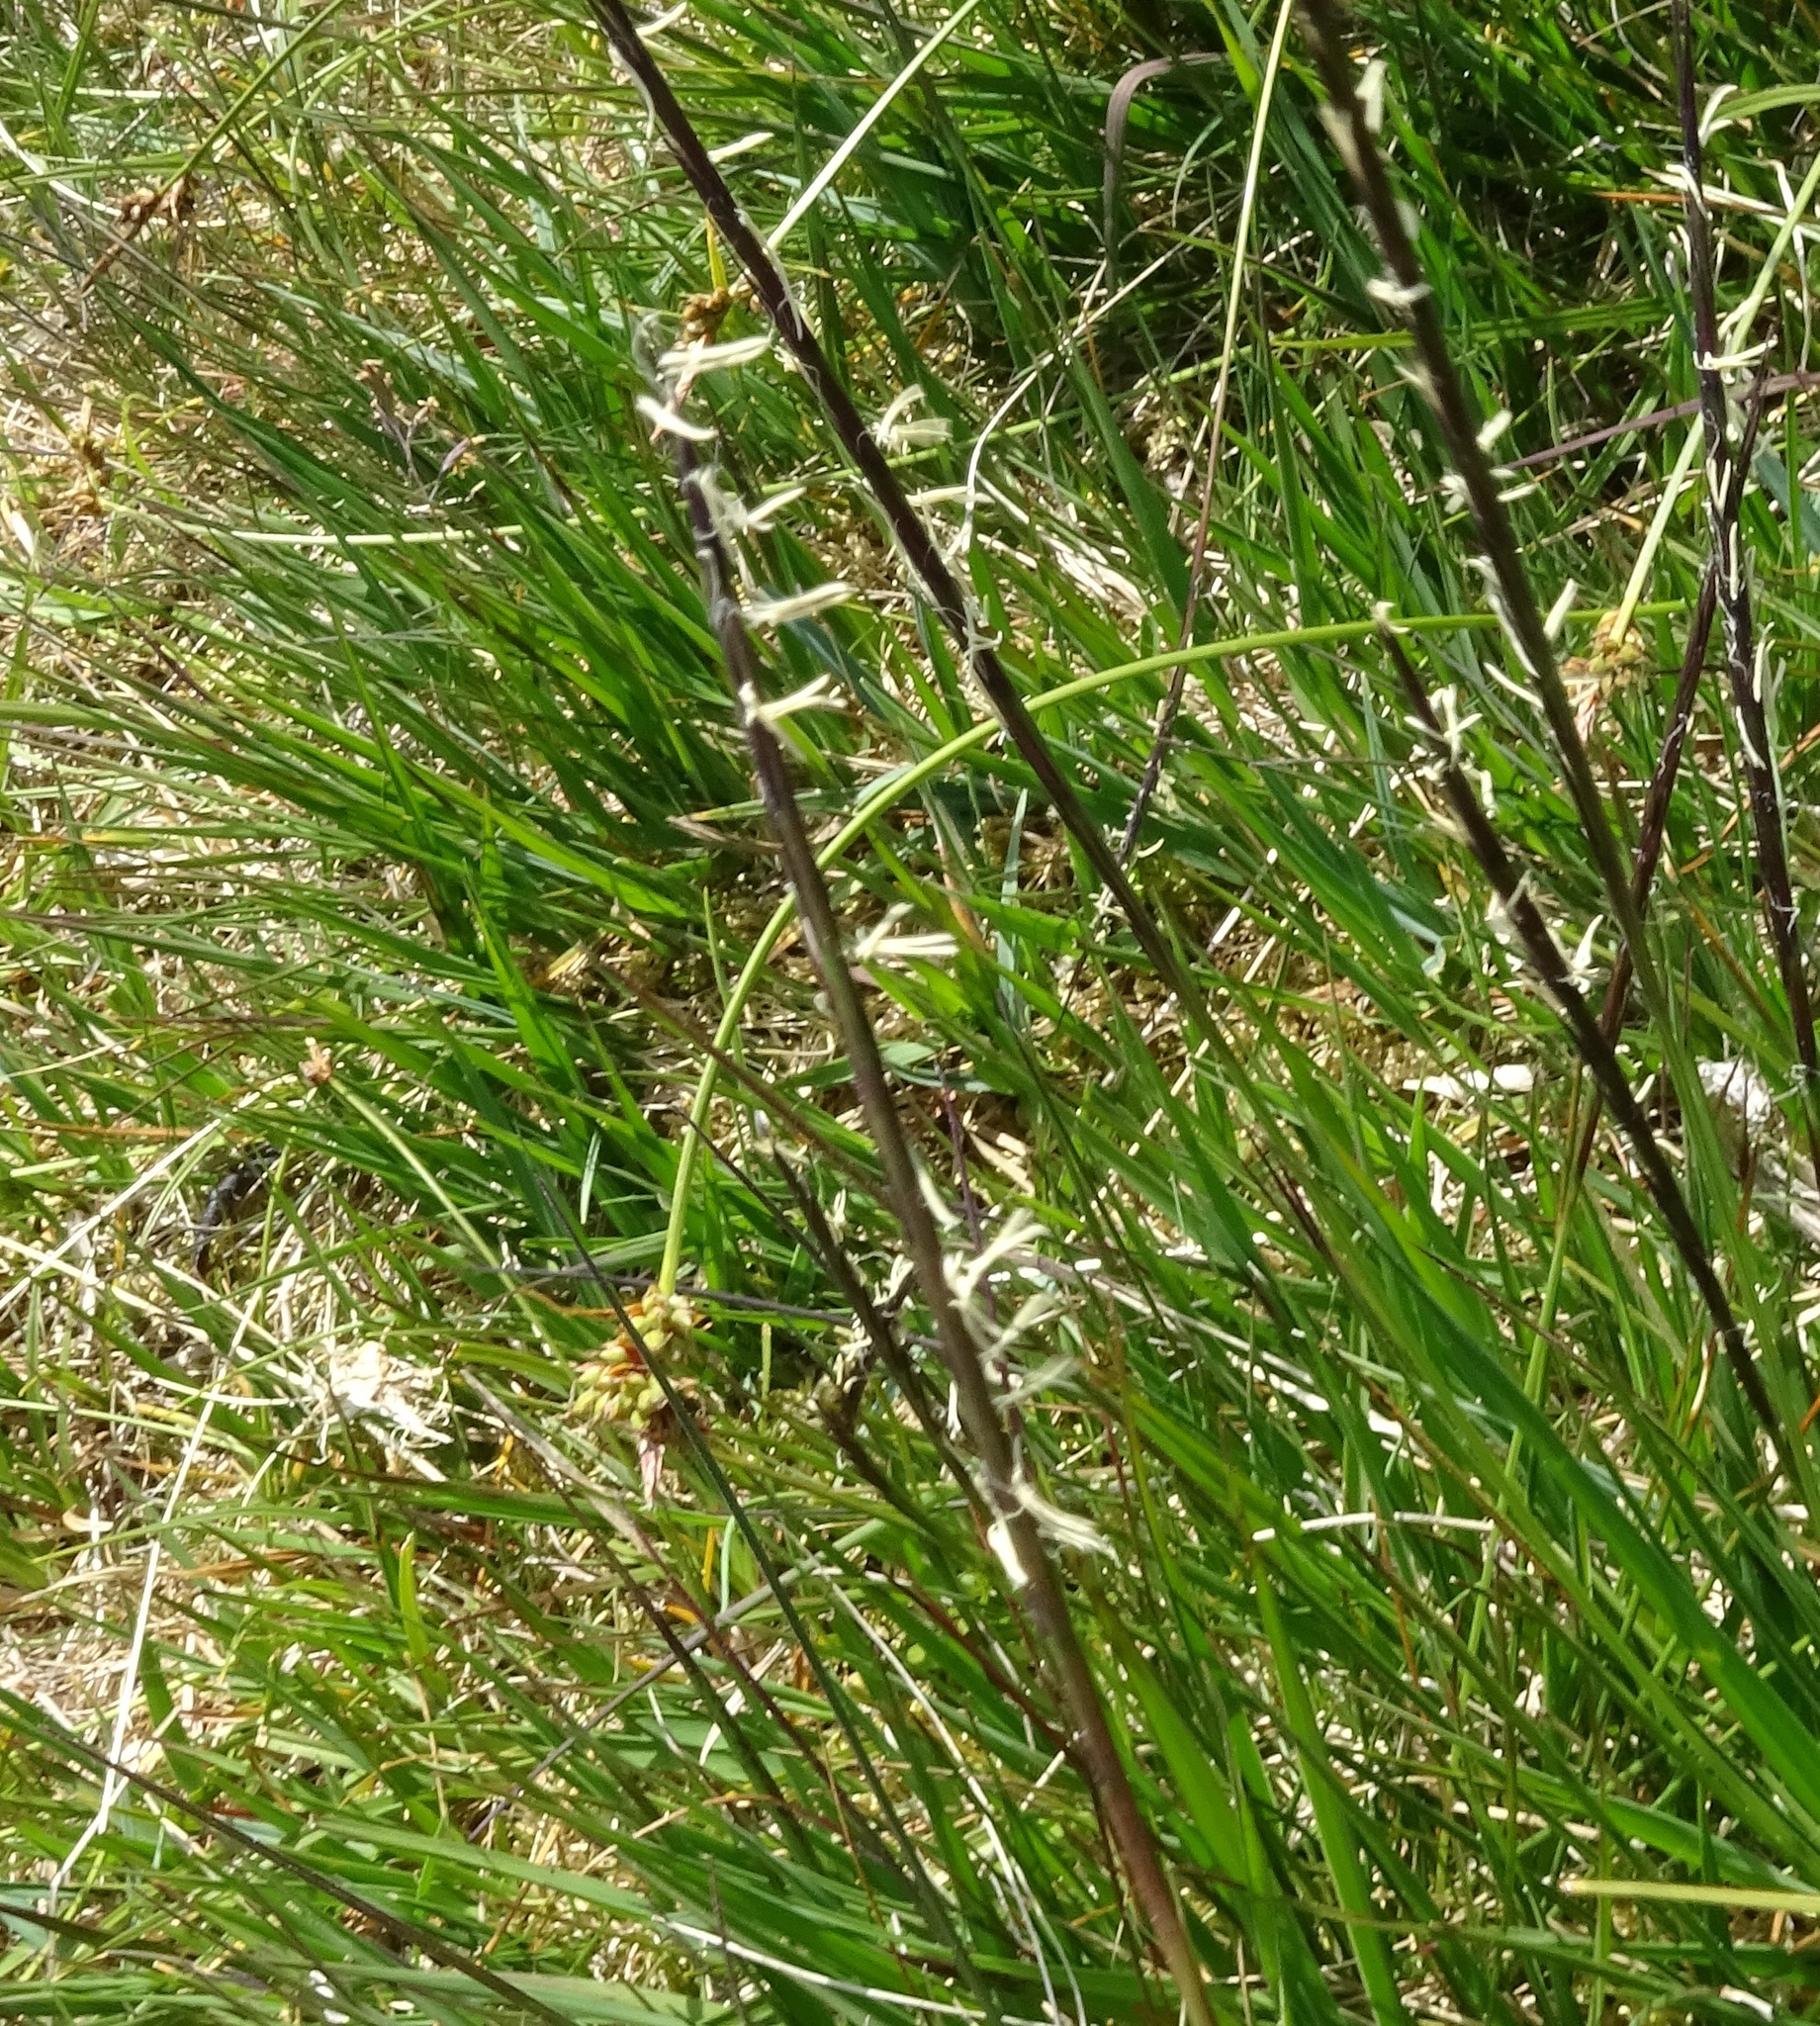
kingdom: Plantae
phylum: Tracheophyta
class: Liliopsida
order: Poales
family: Poaceae
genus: Nardus
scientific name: Nardus stricta
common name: Mat-grass
